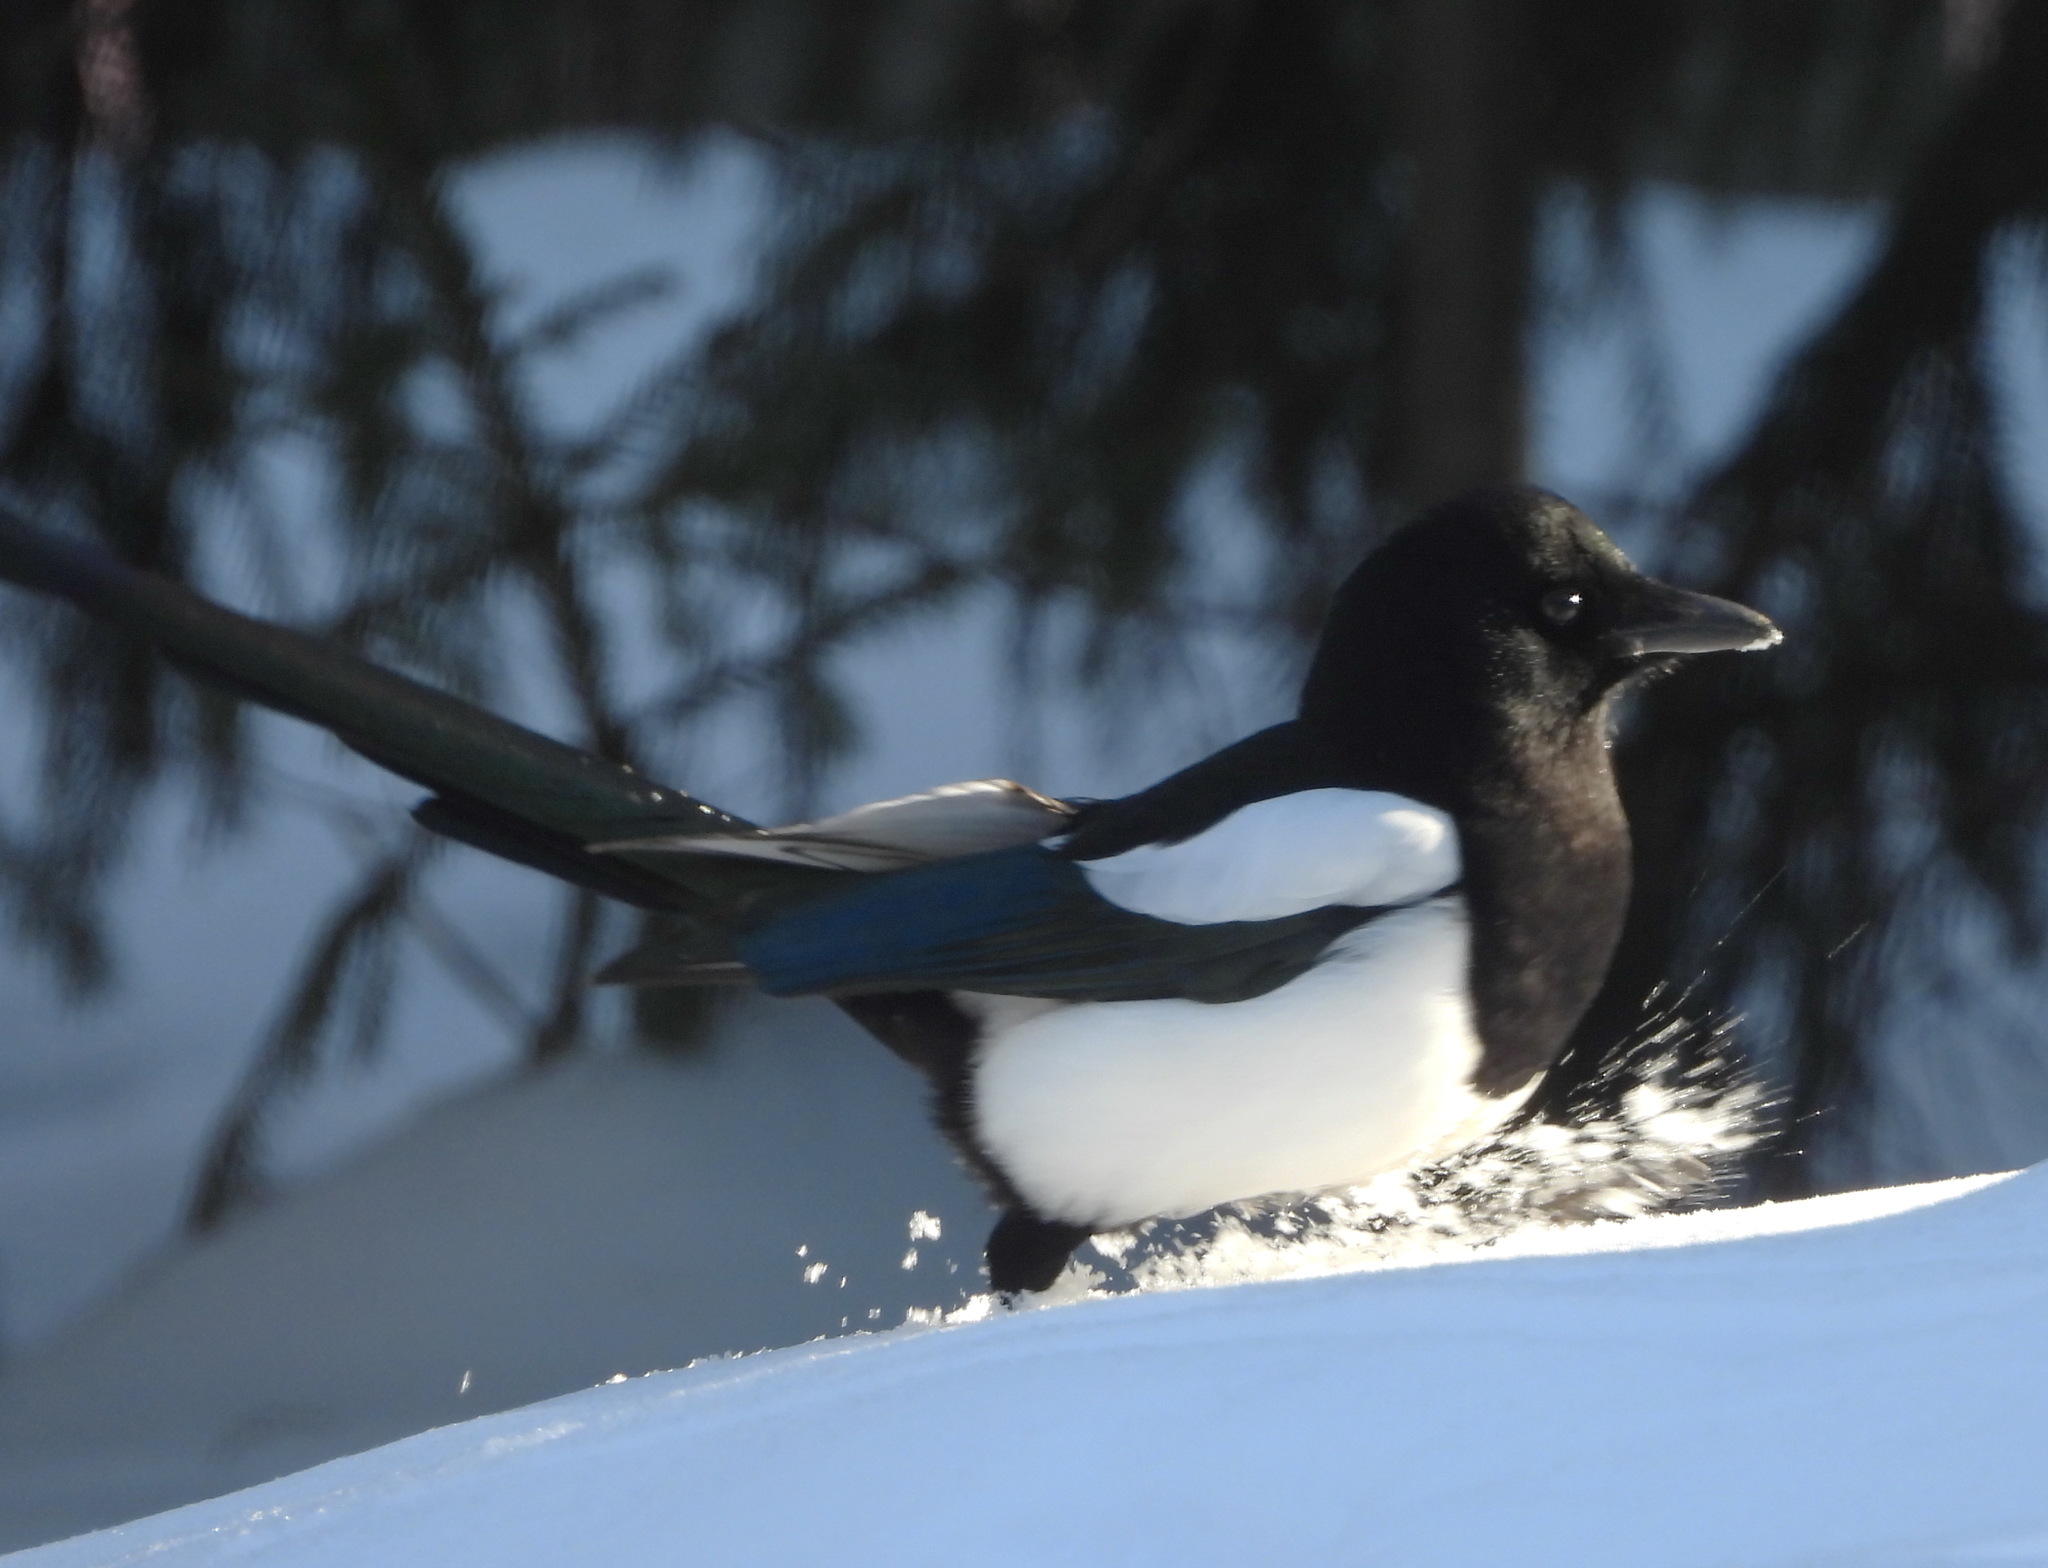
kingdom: Animalia
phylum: Chordata
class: Aves
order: Passeriformes
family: Corvidae
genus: Pica
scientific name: Pica pica
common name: Eurasian magpie
